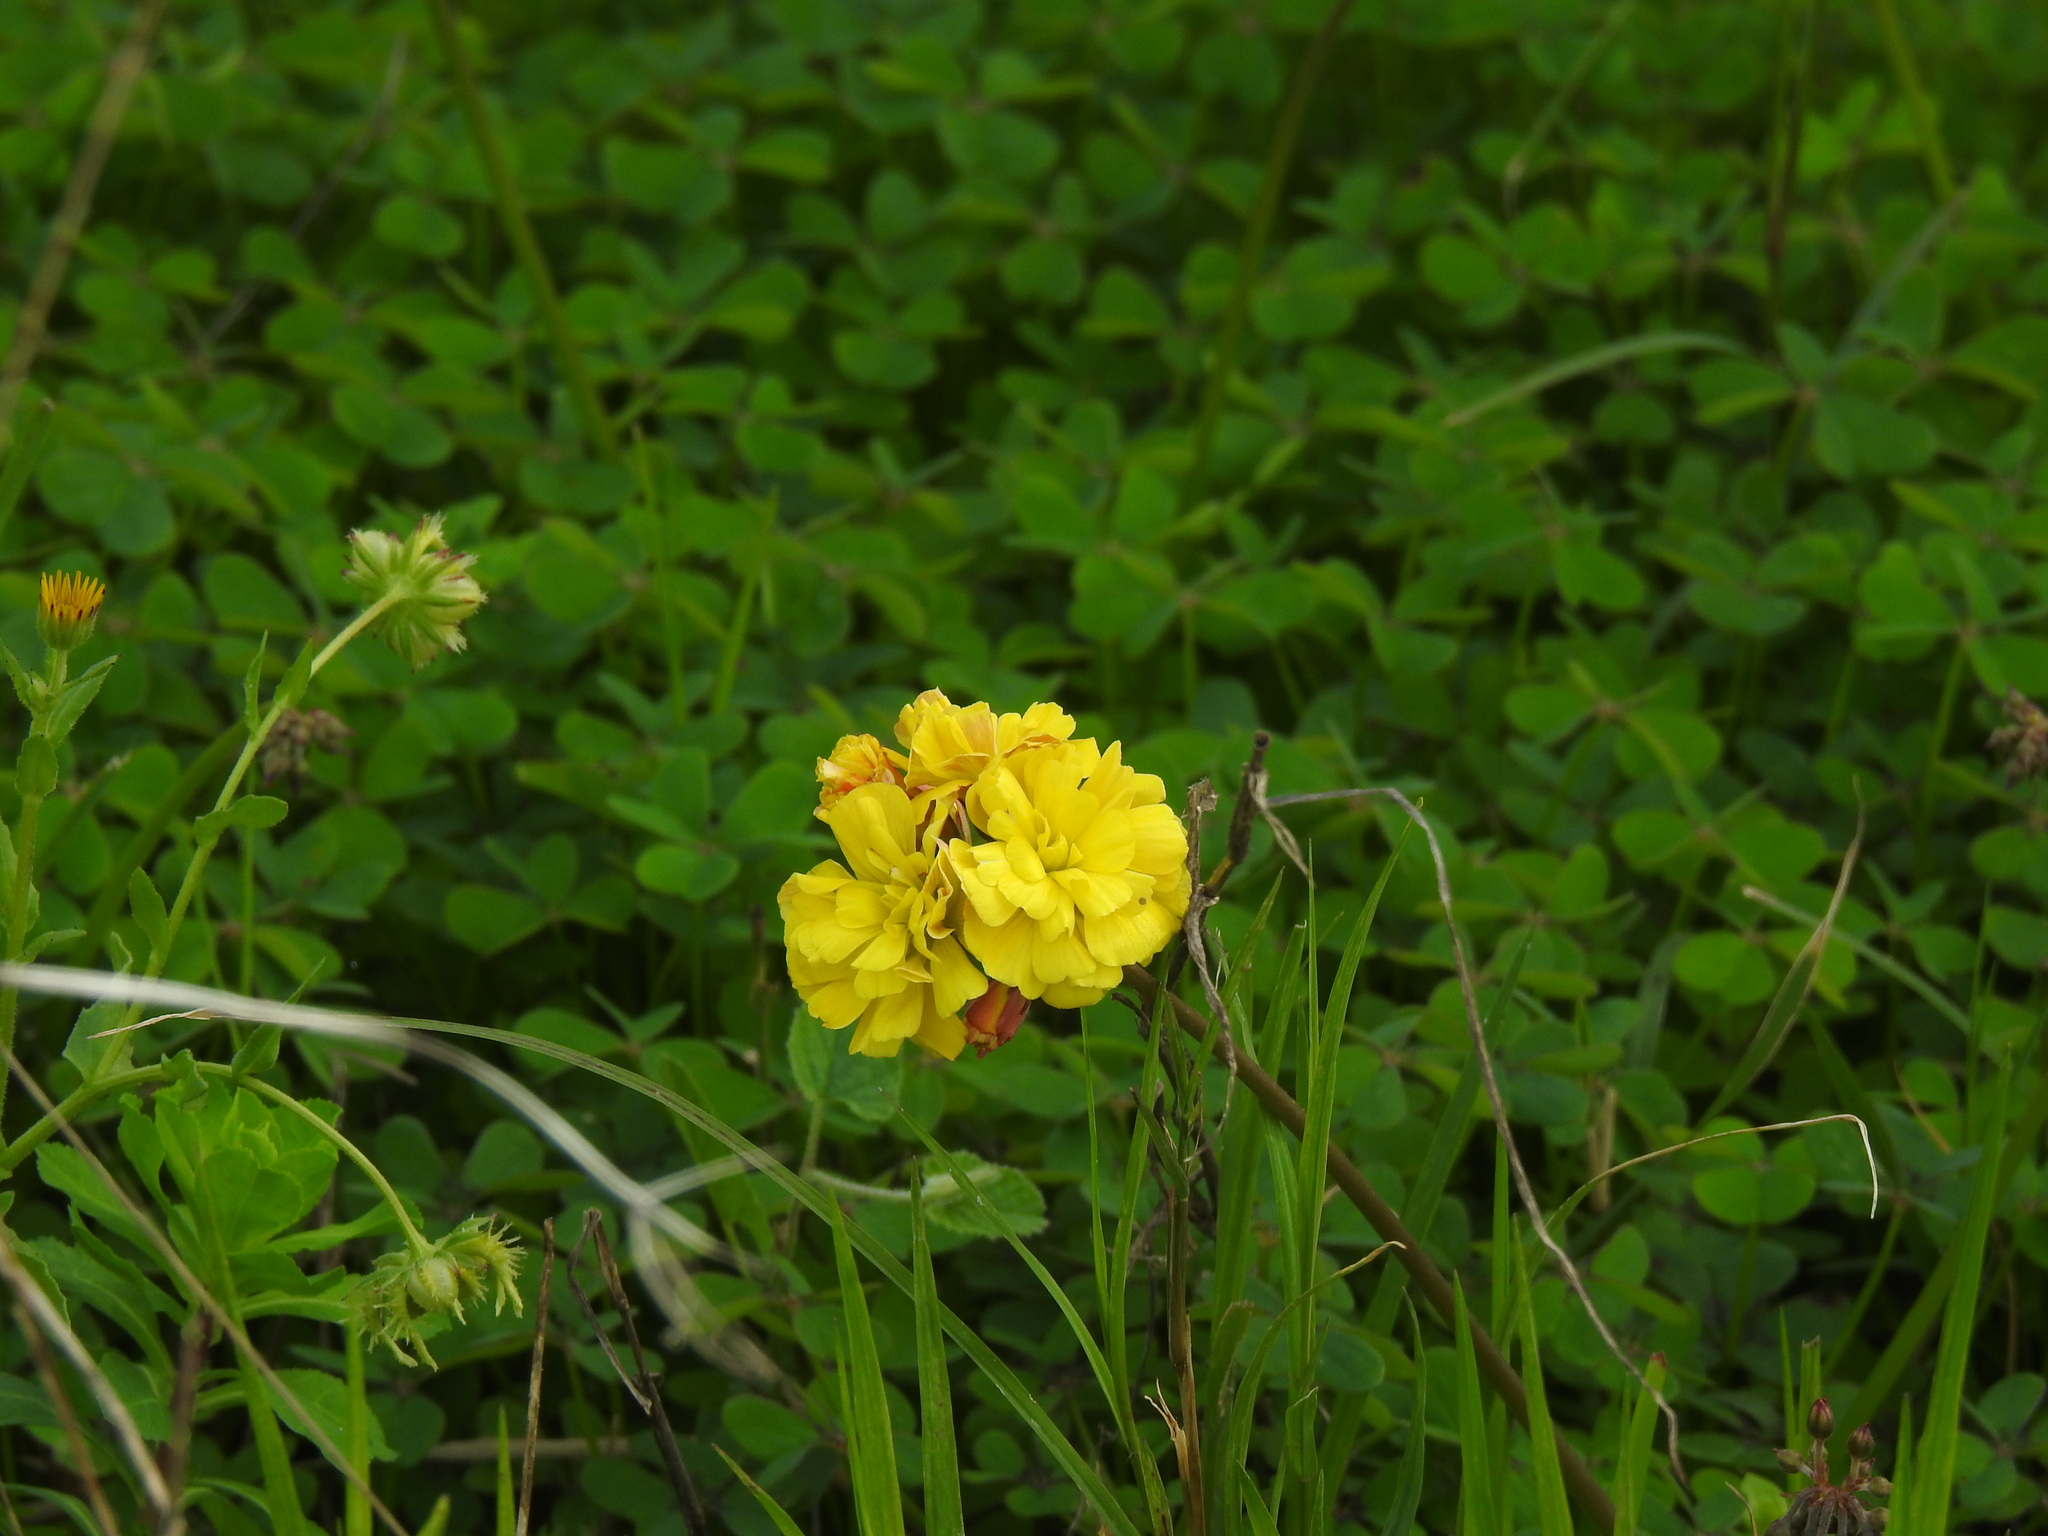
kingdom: Plantae
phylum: Tracheophyta
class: Magnoliopsida
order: Oxalidales
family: Oxalidaceae
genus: Oxalis
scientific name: Oxalis pes-caprae
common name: Bermuda-buttercup
